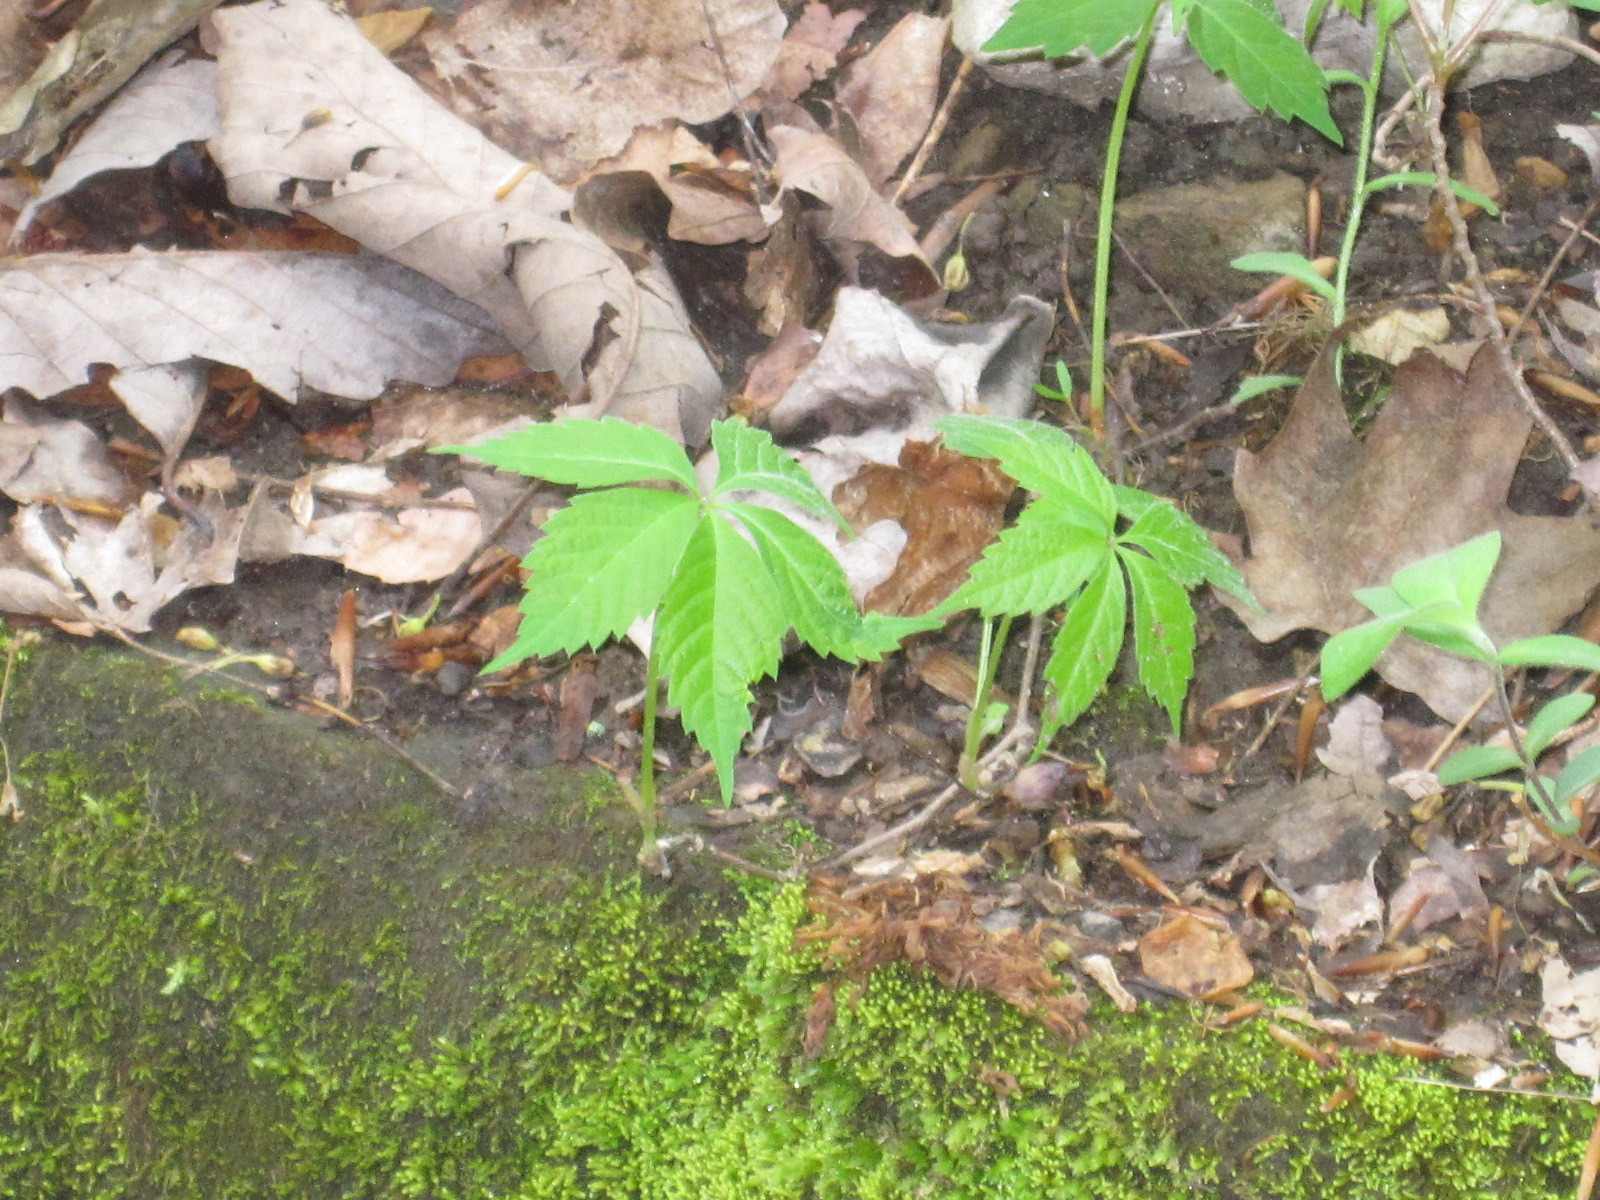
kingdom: Plantae
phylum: Tracheophyta
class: Magnoliopsida
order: Vitales
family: Vitaceae
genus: Parthenocissus
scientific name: Parthenocissus quinquefolia
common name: Virginia-creeper
